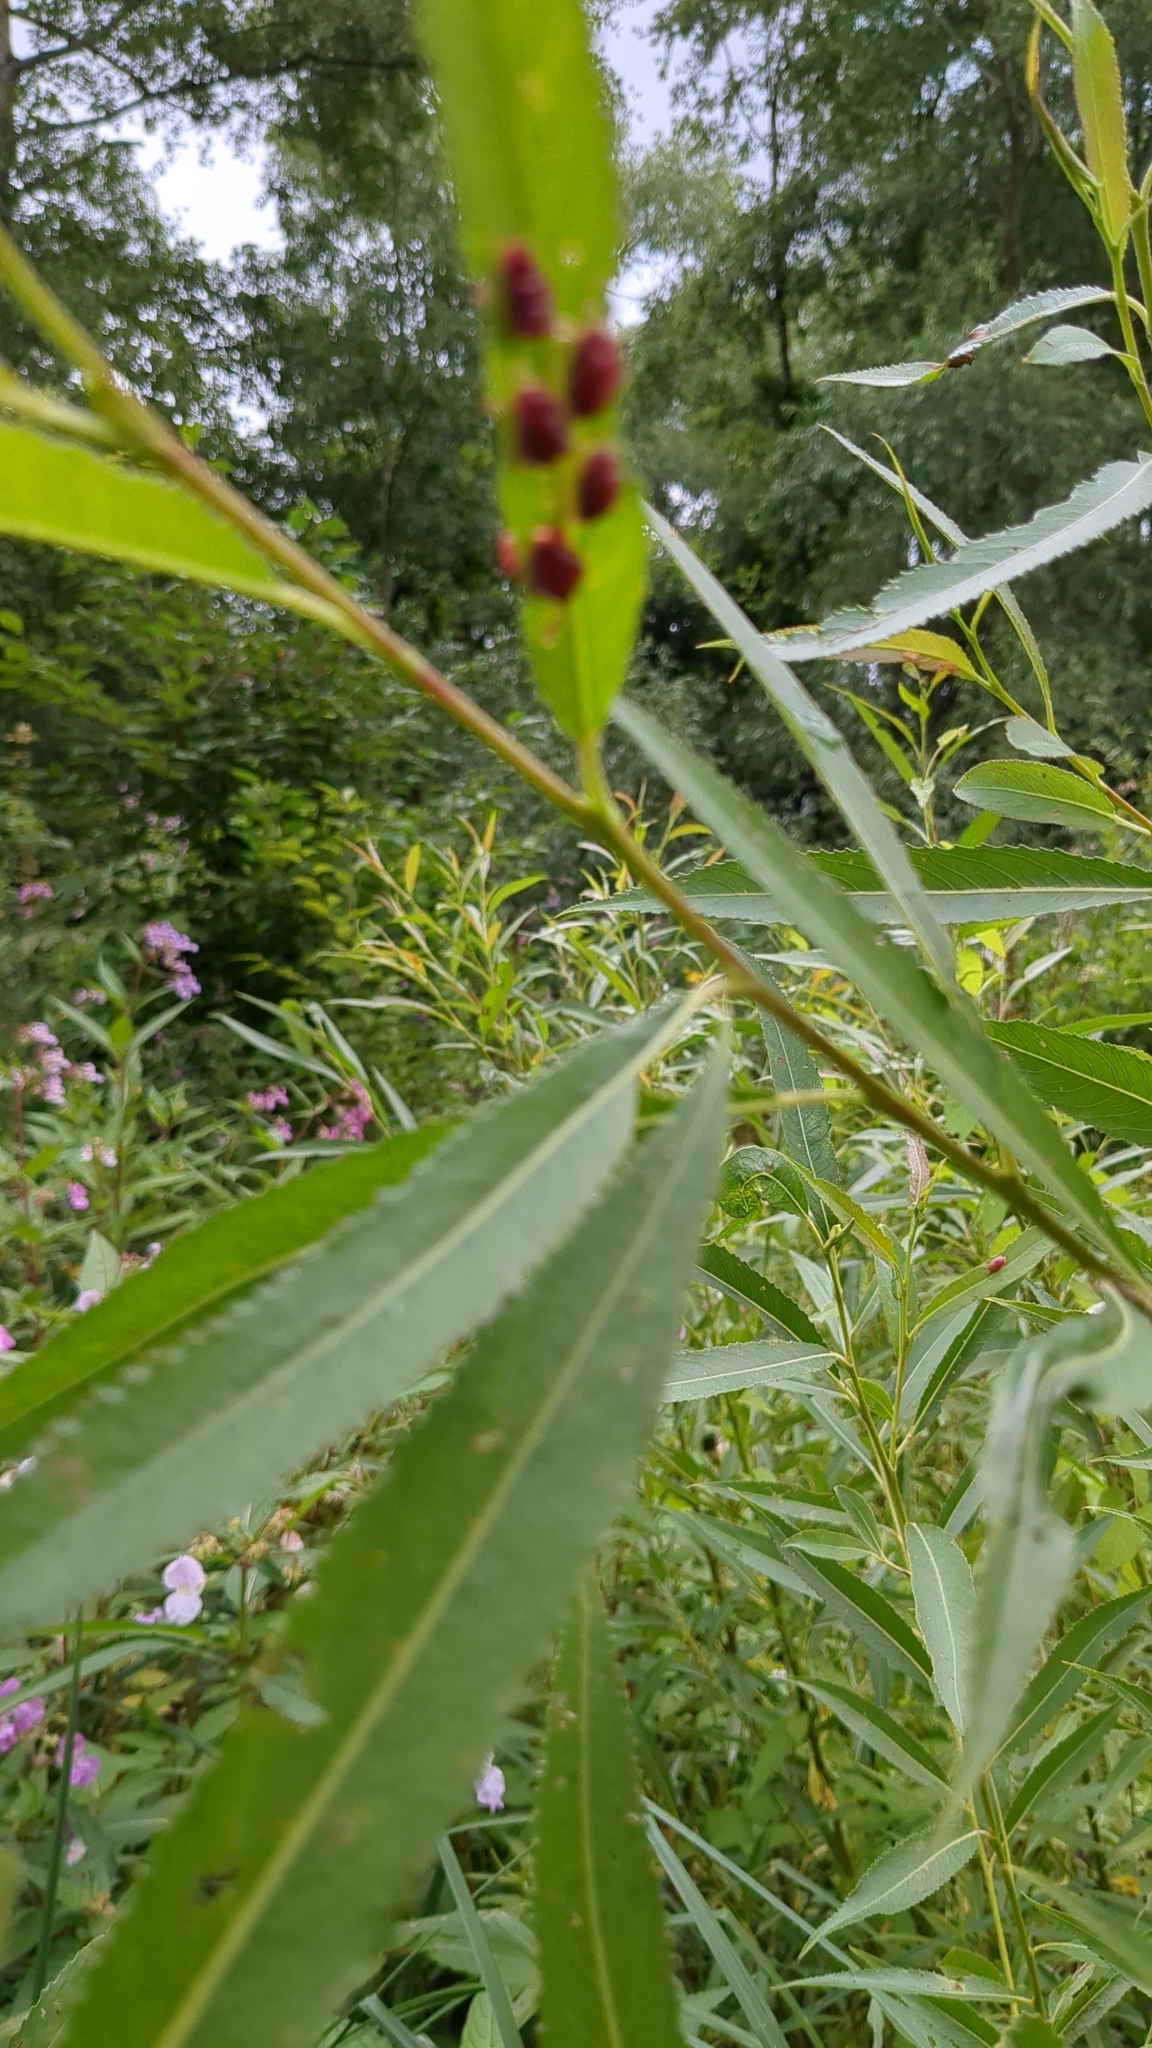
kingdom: Animalia
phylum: Arthropoda
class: Insecta
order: Hymenoptera
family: Tenthredinidae
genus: Pontania
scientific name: Pontania proxima
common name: Common sawfly
